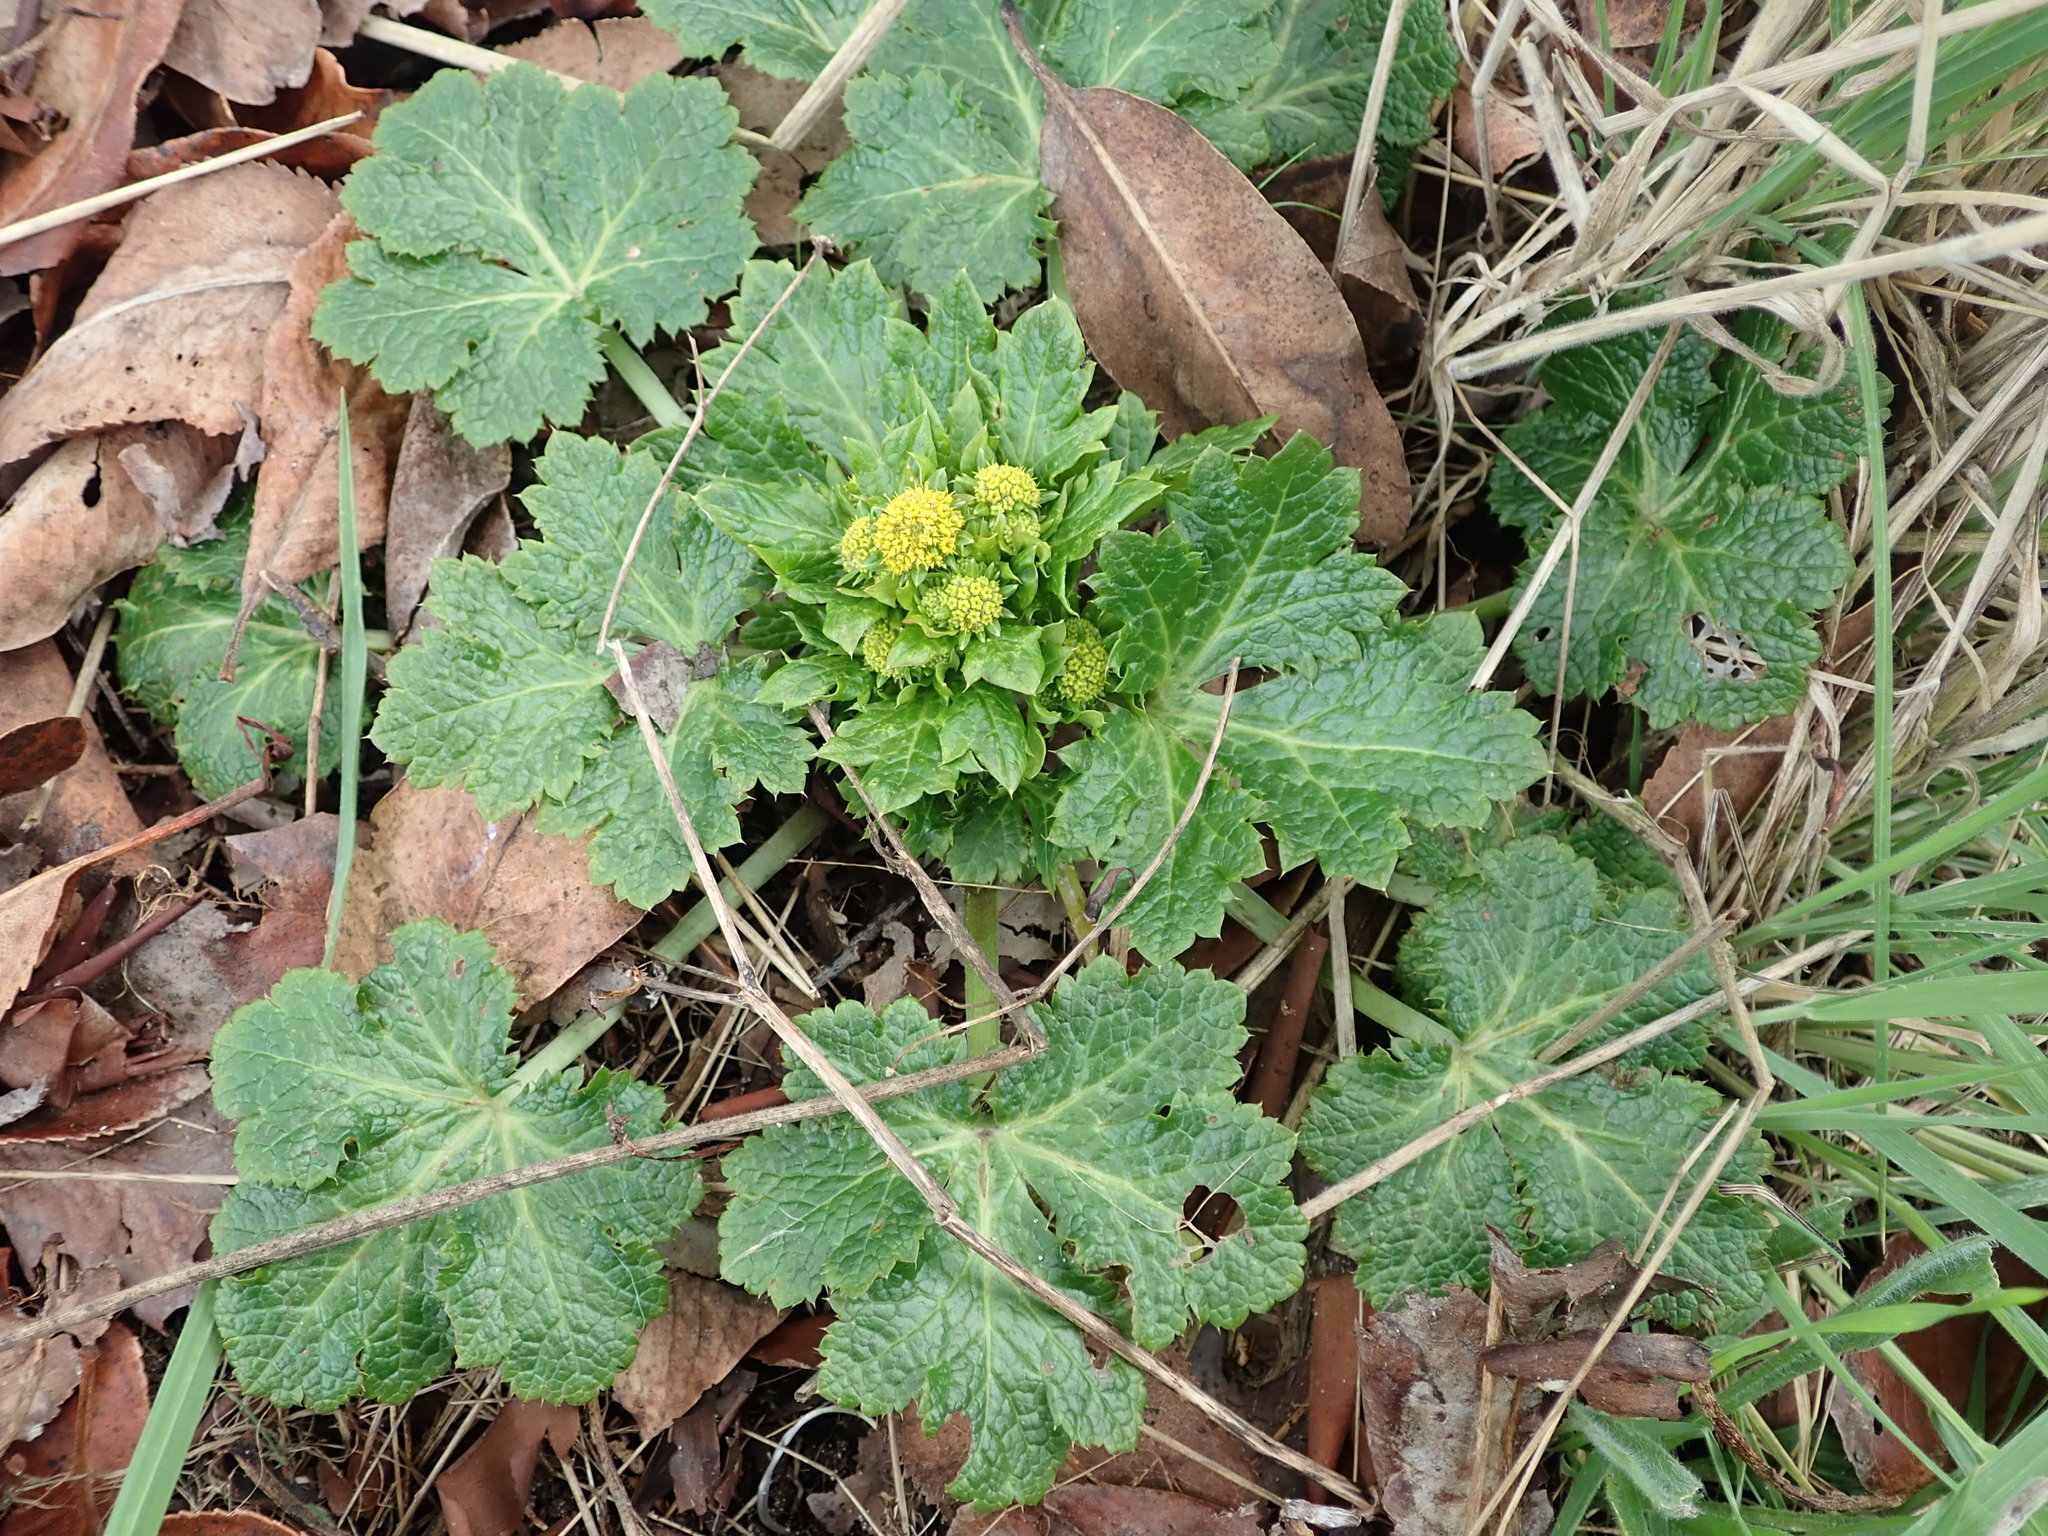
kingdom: Plantae
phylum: Tracheophyta
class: Magnoliopsida
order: Apiales
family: Apiaceae
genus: Sanicula
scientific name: Sanicula crassicaulis
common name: Western snakeroot
